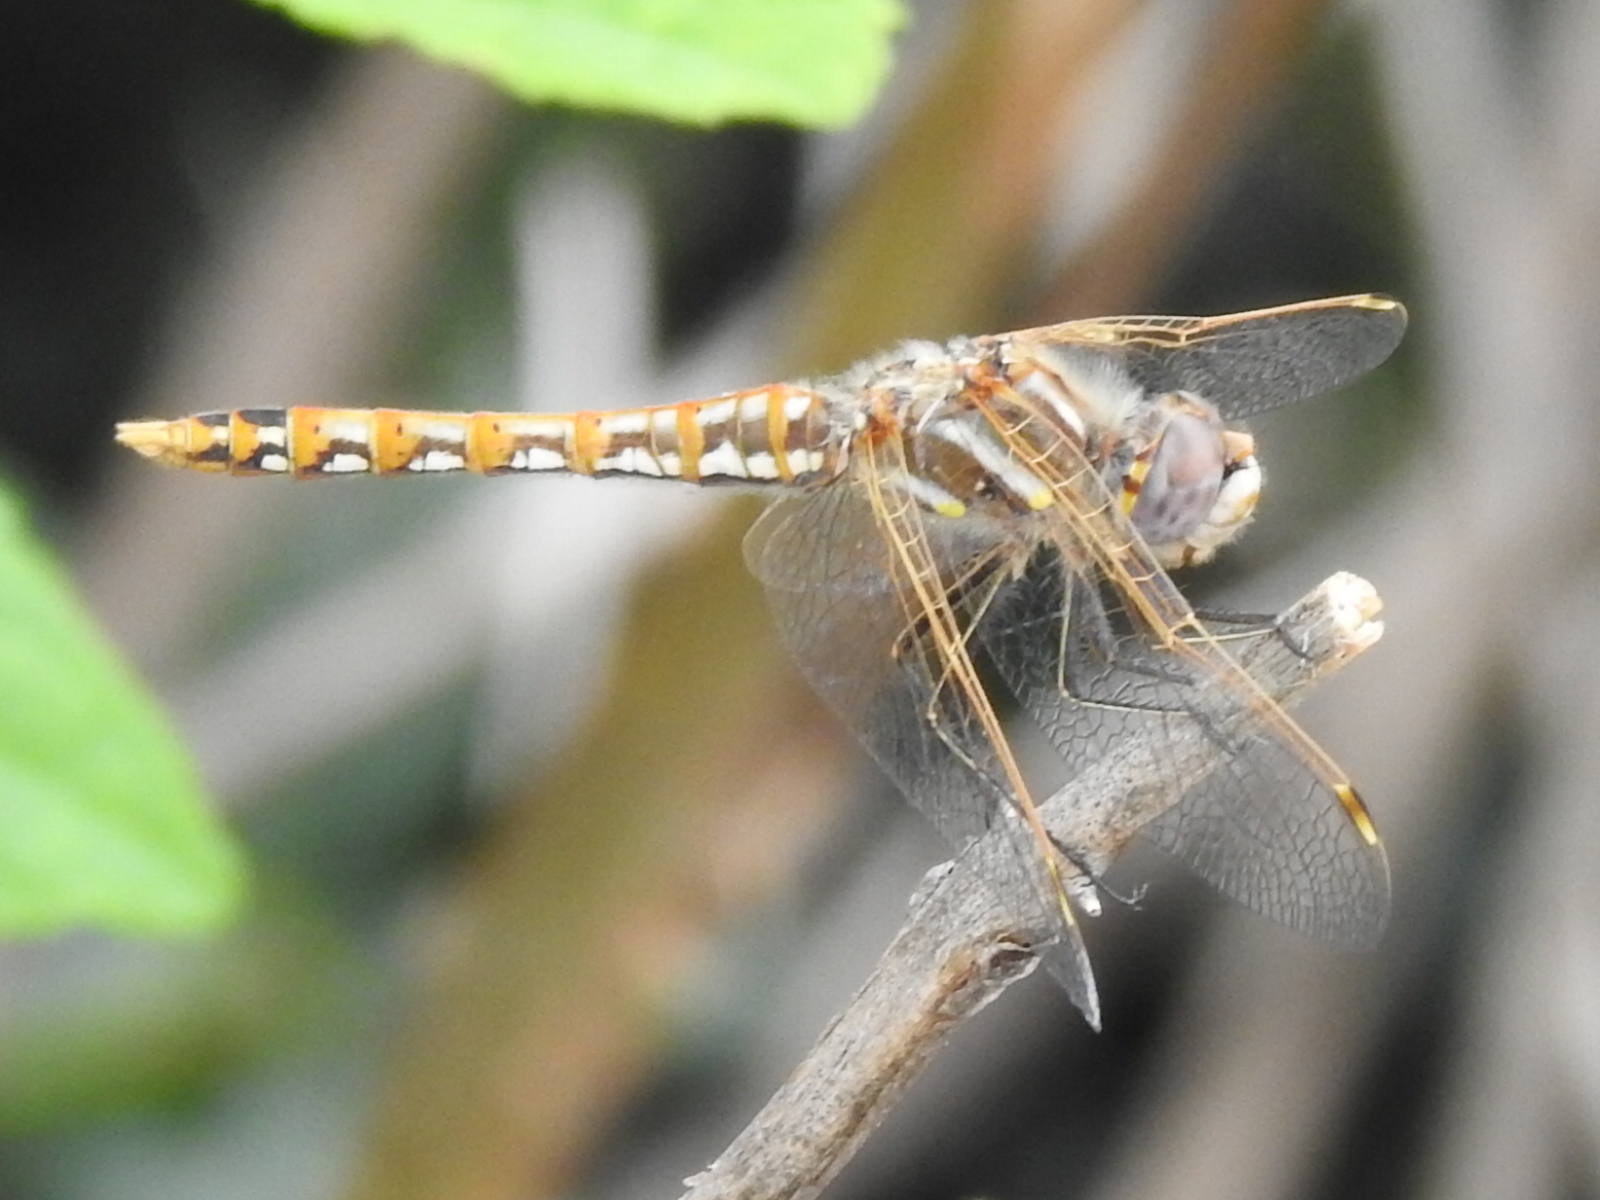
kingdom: Animalia
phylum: Arthropoda
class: Insecta
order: Odonata
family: Libellulidae
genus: Sympetrum
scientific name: Sympetrum corruptum
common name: Variegated meadowhawk
